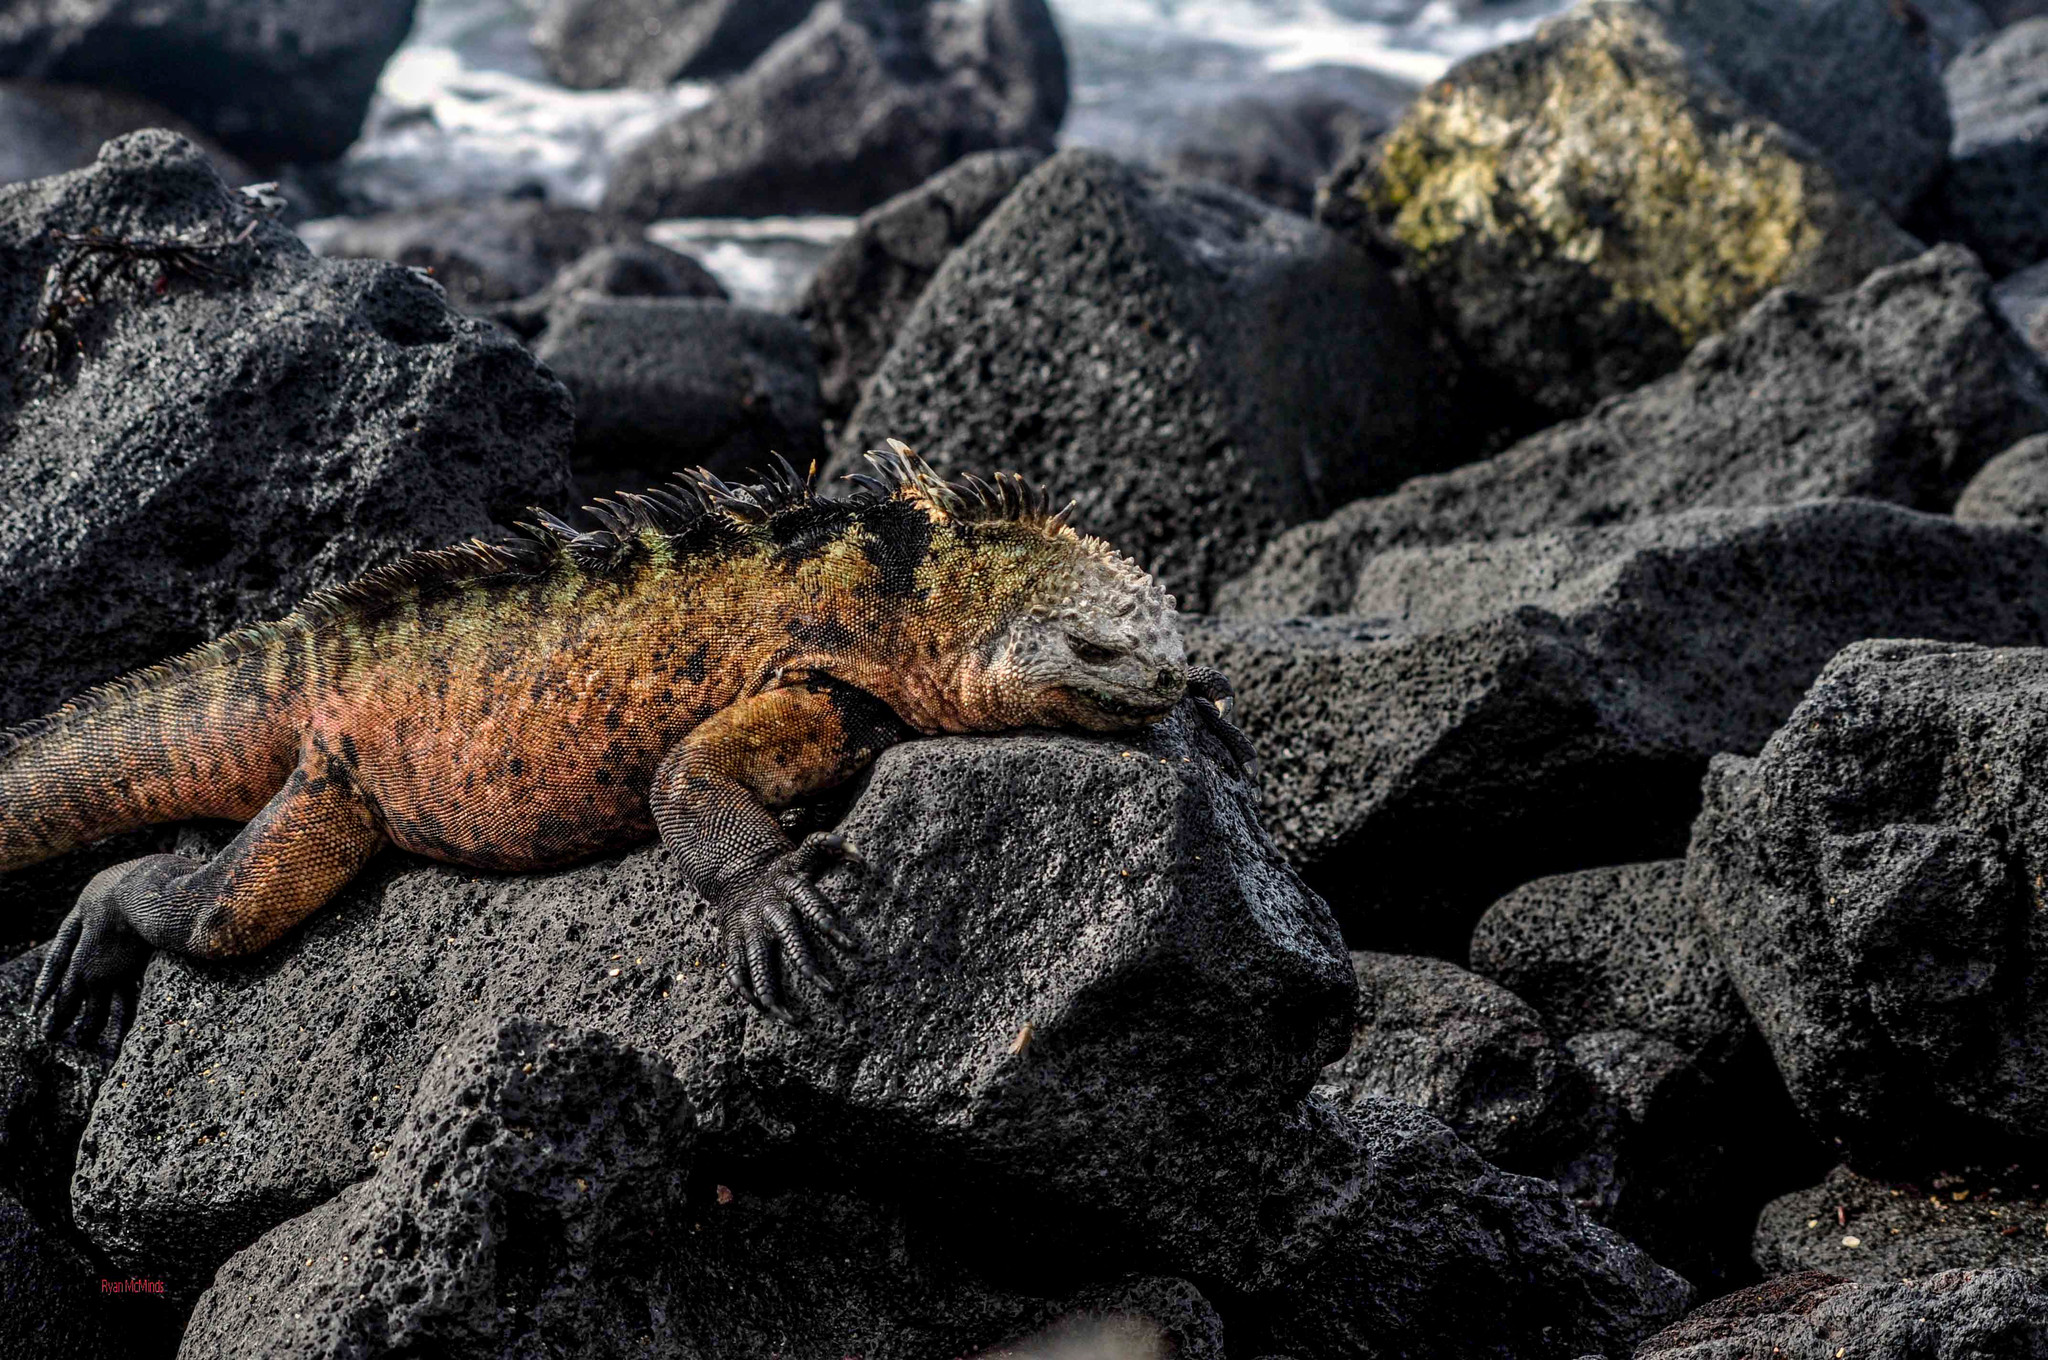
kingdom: Animalia
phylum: Chordata
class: Squamata
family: Iguanidae
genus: Amblyrhynchus
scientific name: Amblyrhynchus cristatus
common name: Marine iguana
